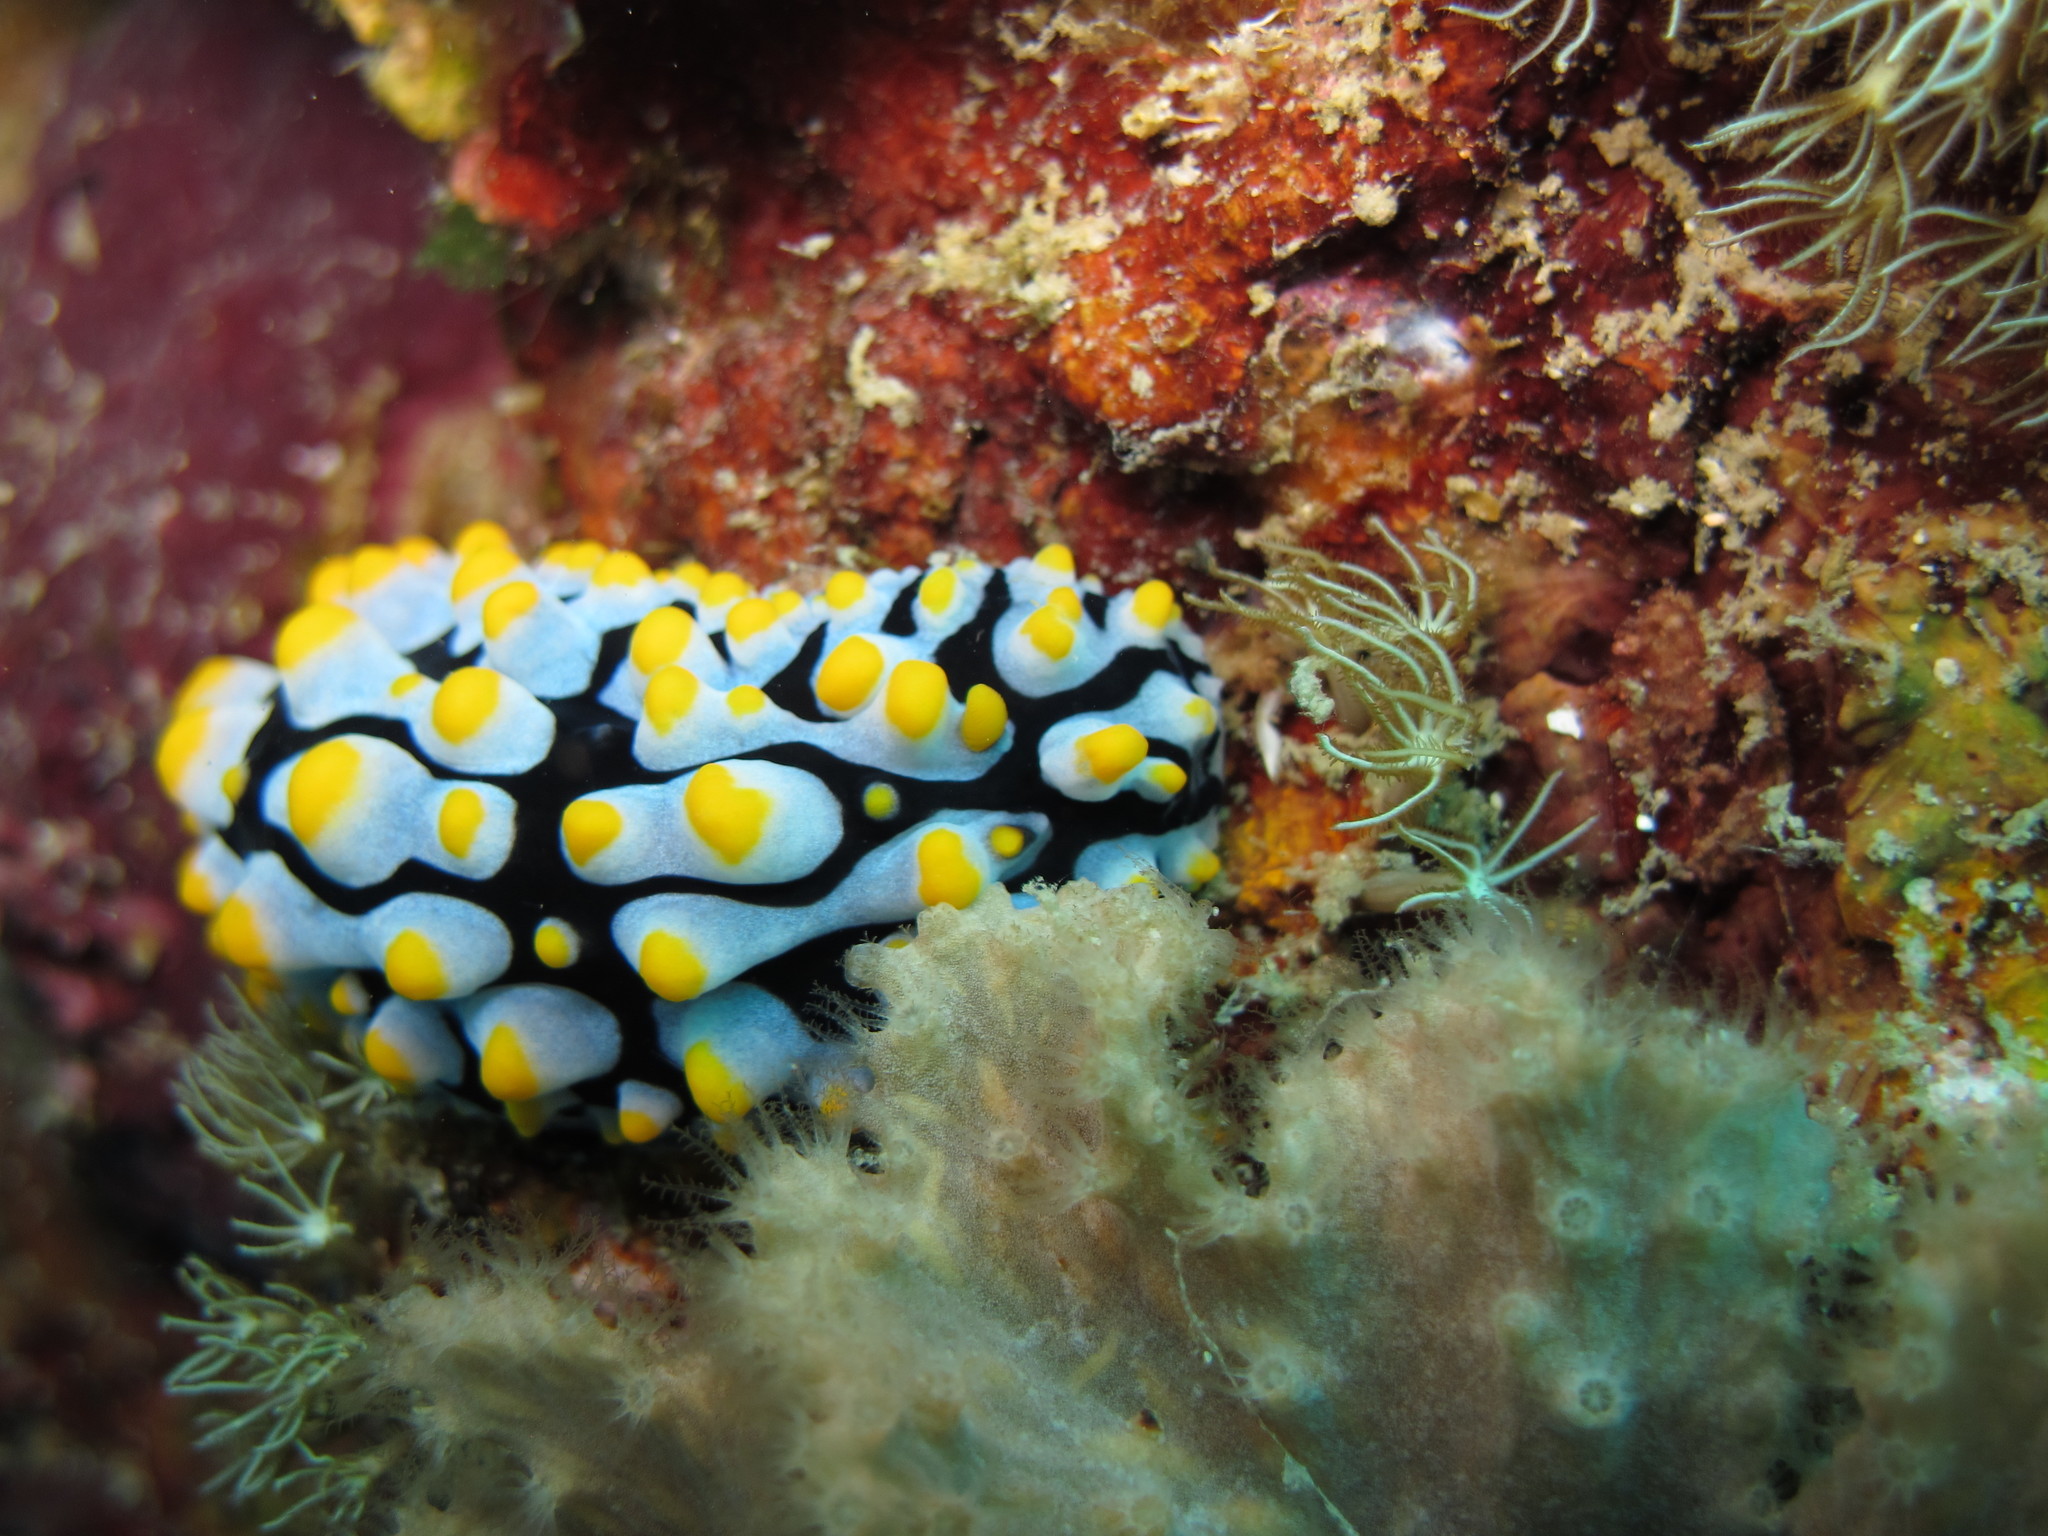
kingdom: Animalia
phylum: Mollusca
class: Gastropoda
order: Nudibranchia
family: Phyllidiidae
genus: Phyllidia
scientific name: Phyllidia varicosa
